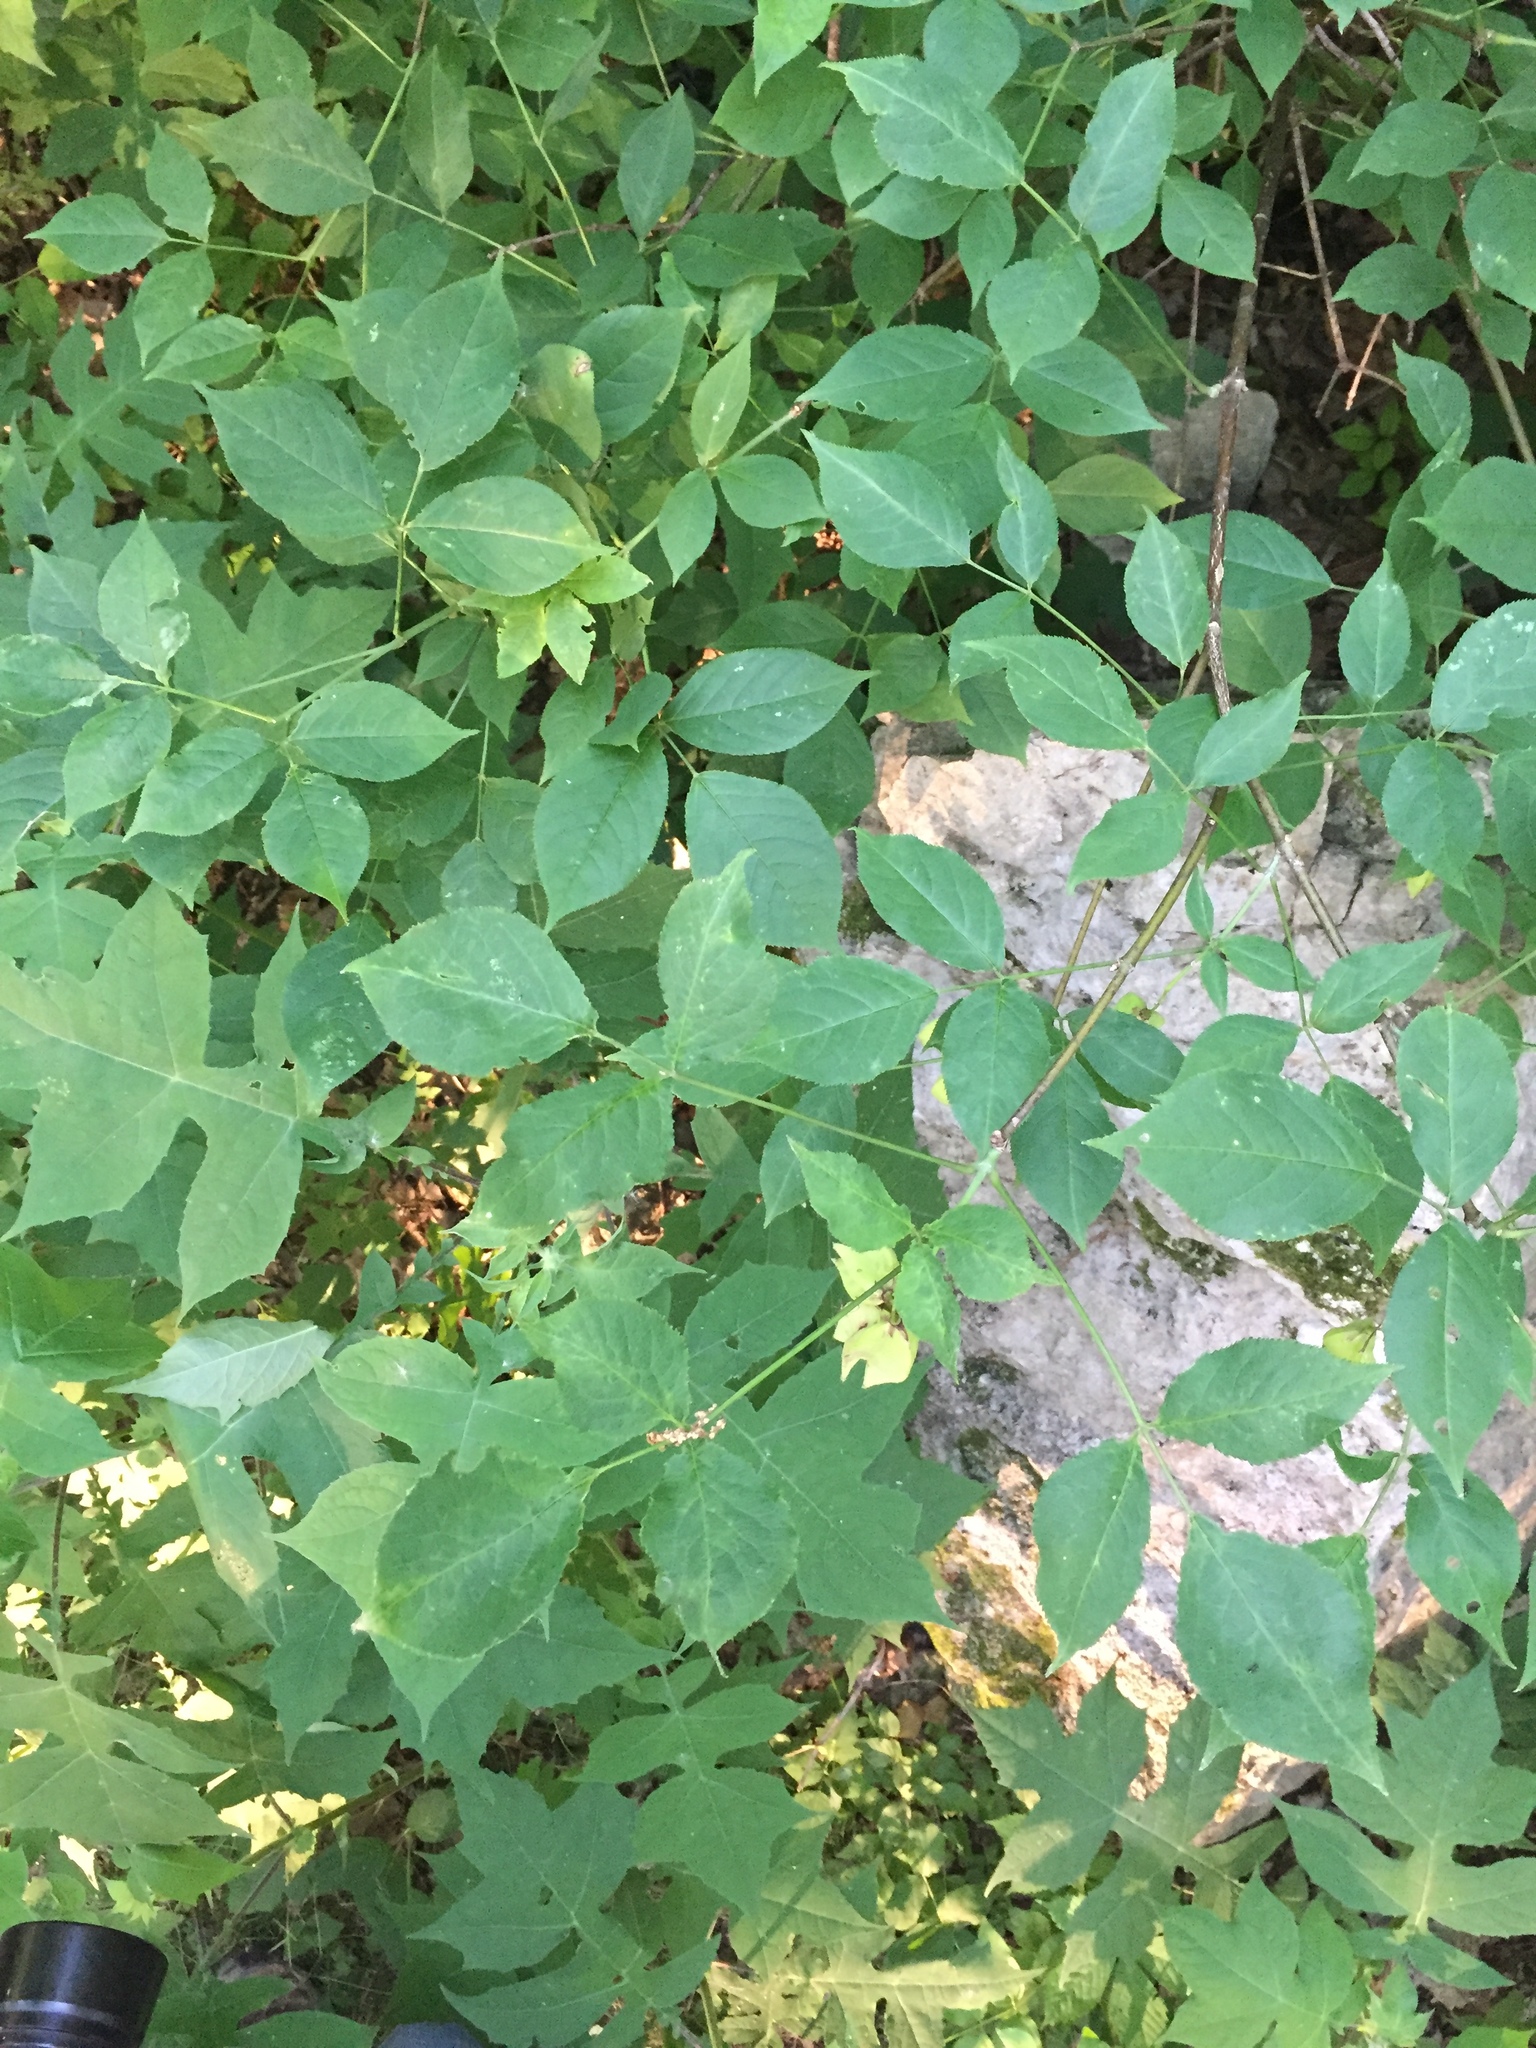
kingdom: Plantae
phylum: Tracheophyta
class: Magnoliopsida
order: Crossosomatales
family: Staphyleaceae
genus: Staphylea
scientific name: Staphylea trifolia
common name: American bladdernut
